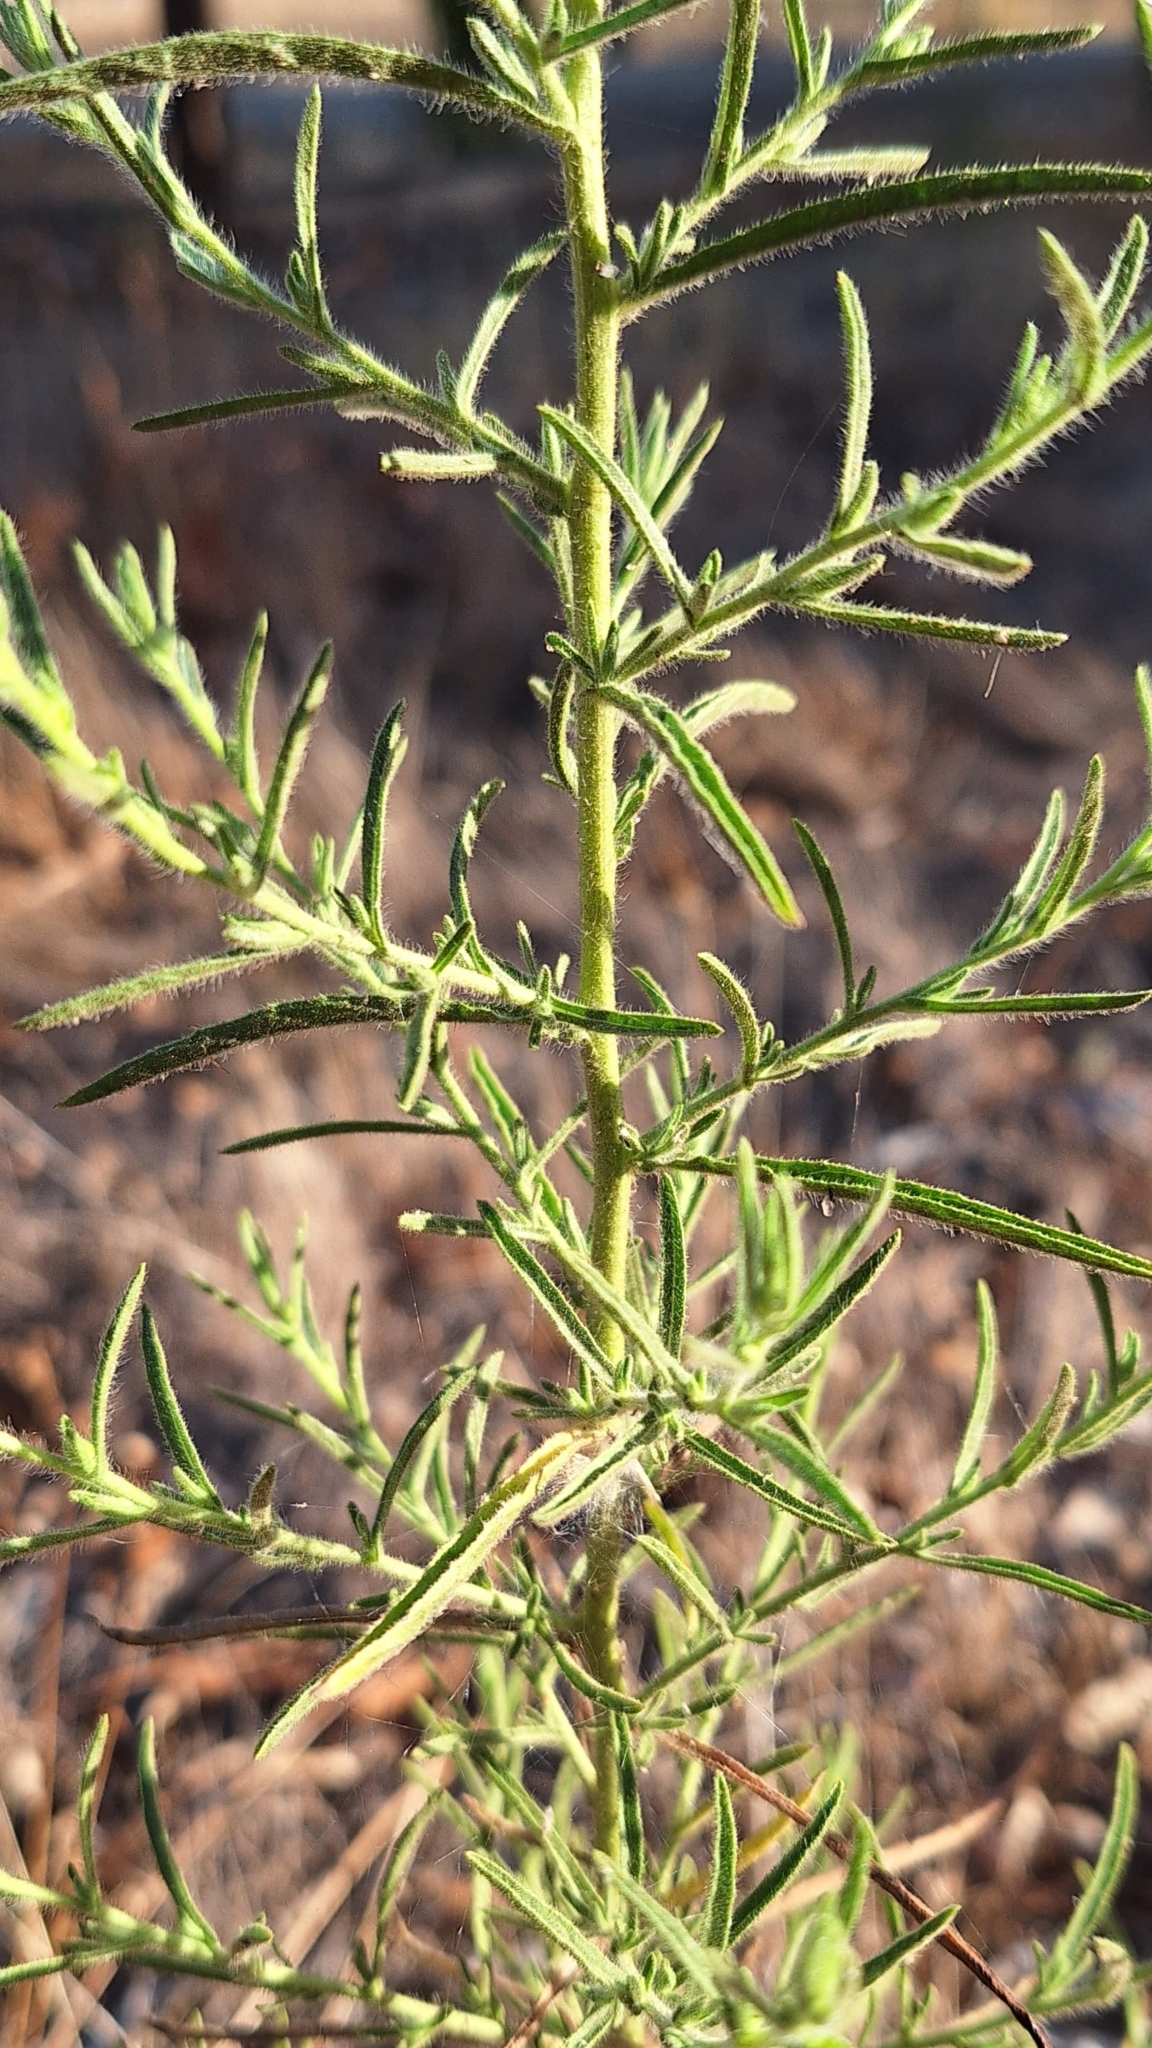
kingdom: Plantae
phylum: Tracheophyta
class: Magnoliopsida
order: Asterales
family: Asteraceae
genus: Dittrichia
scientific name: Dittrichia graveolens
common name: Stinking fleabane
